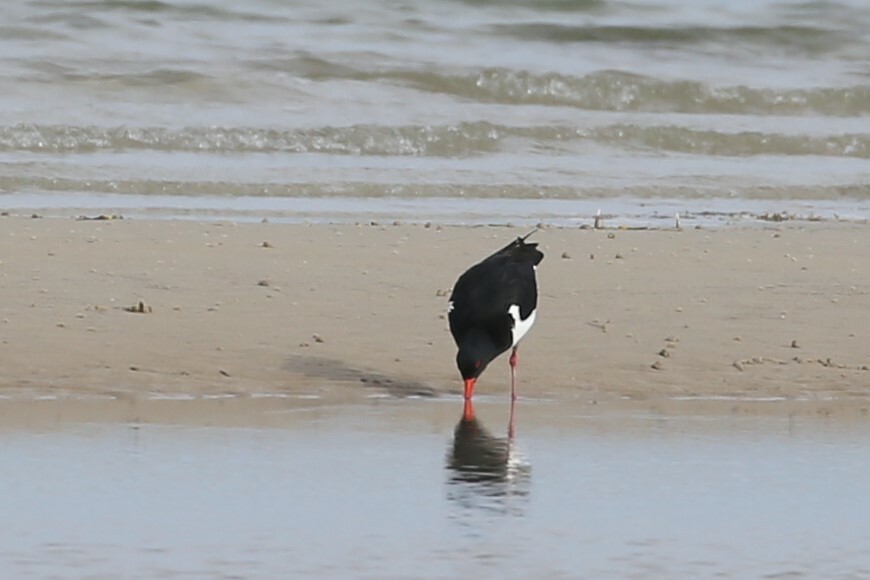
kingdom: Animalia
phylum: Chordata
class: Aves
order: Charadriiformes
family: Haematopodidae
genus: Haematopus
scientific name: Haematopus longirostris
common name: Pied oystercatcher
